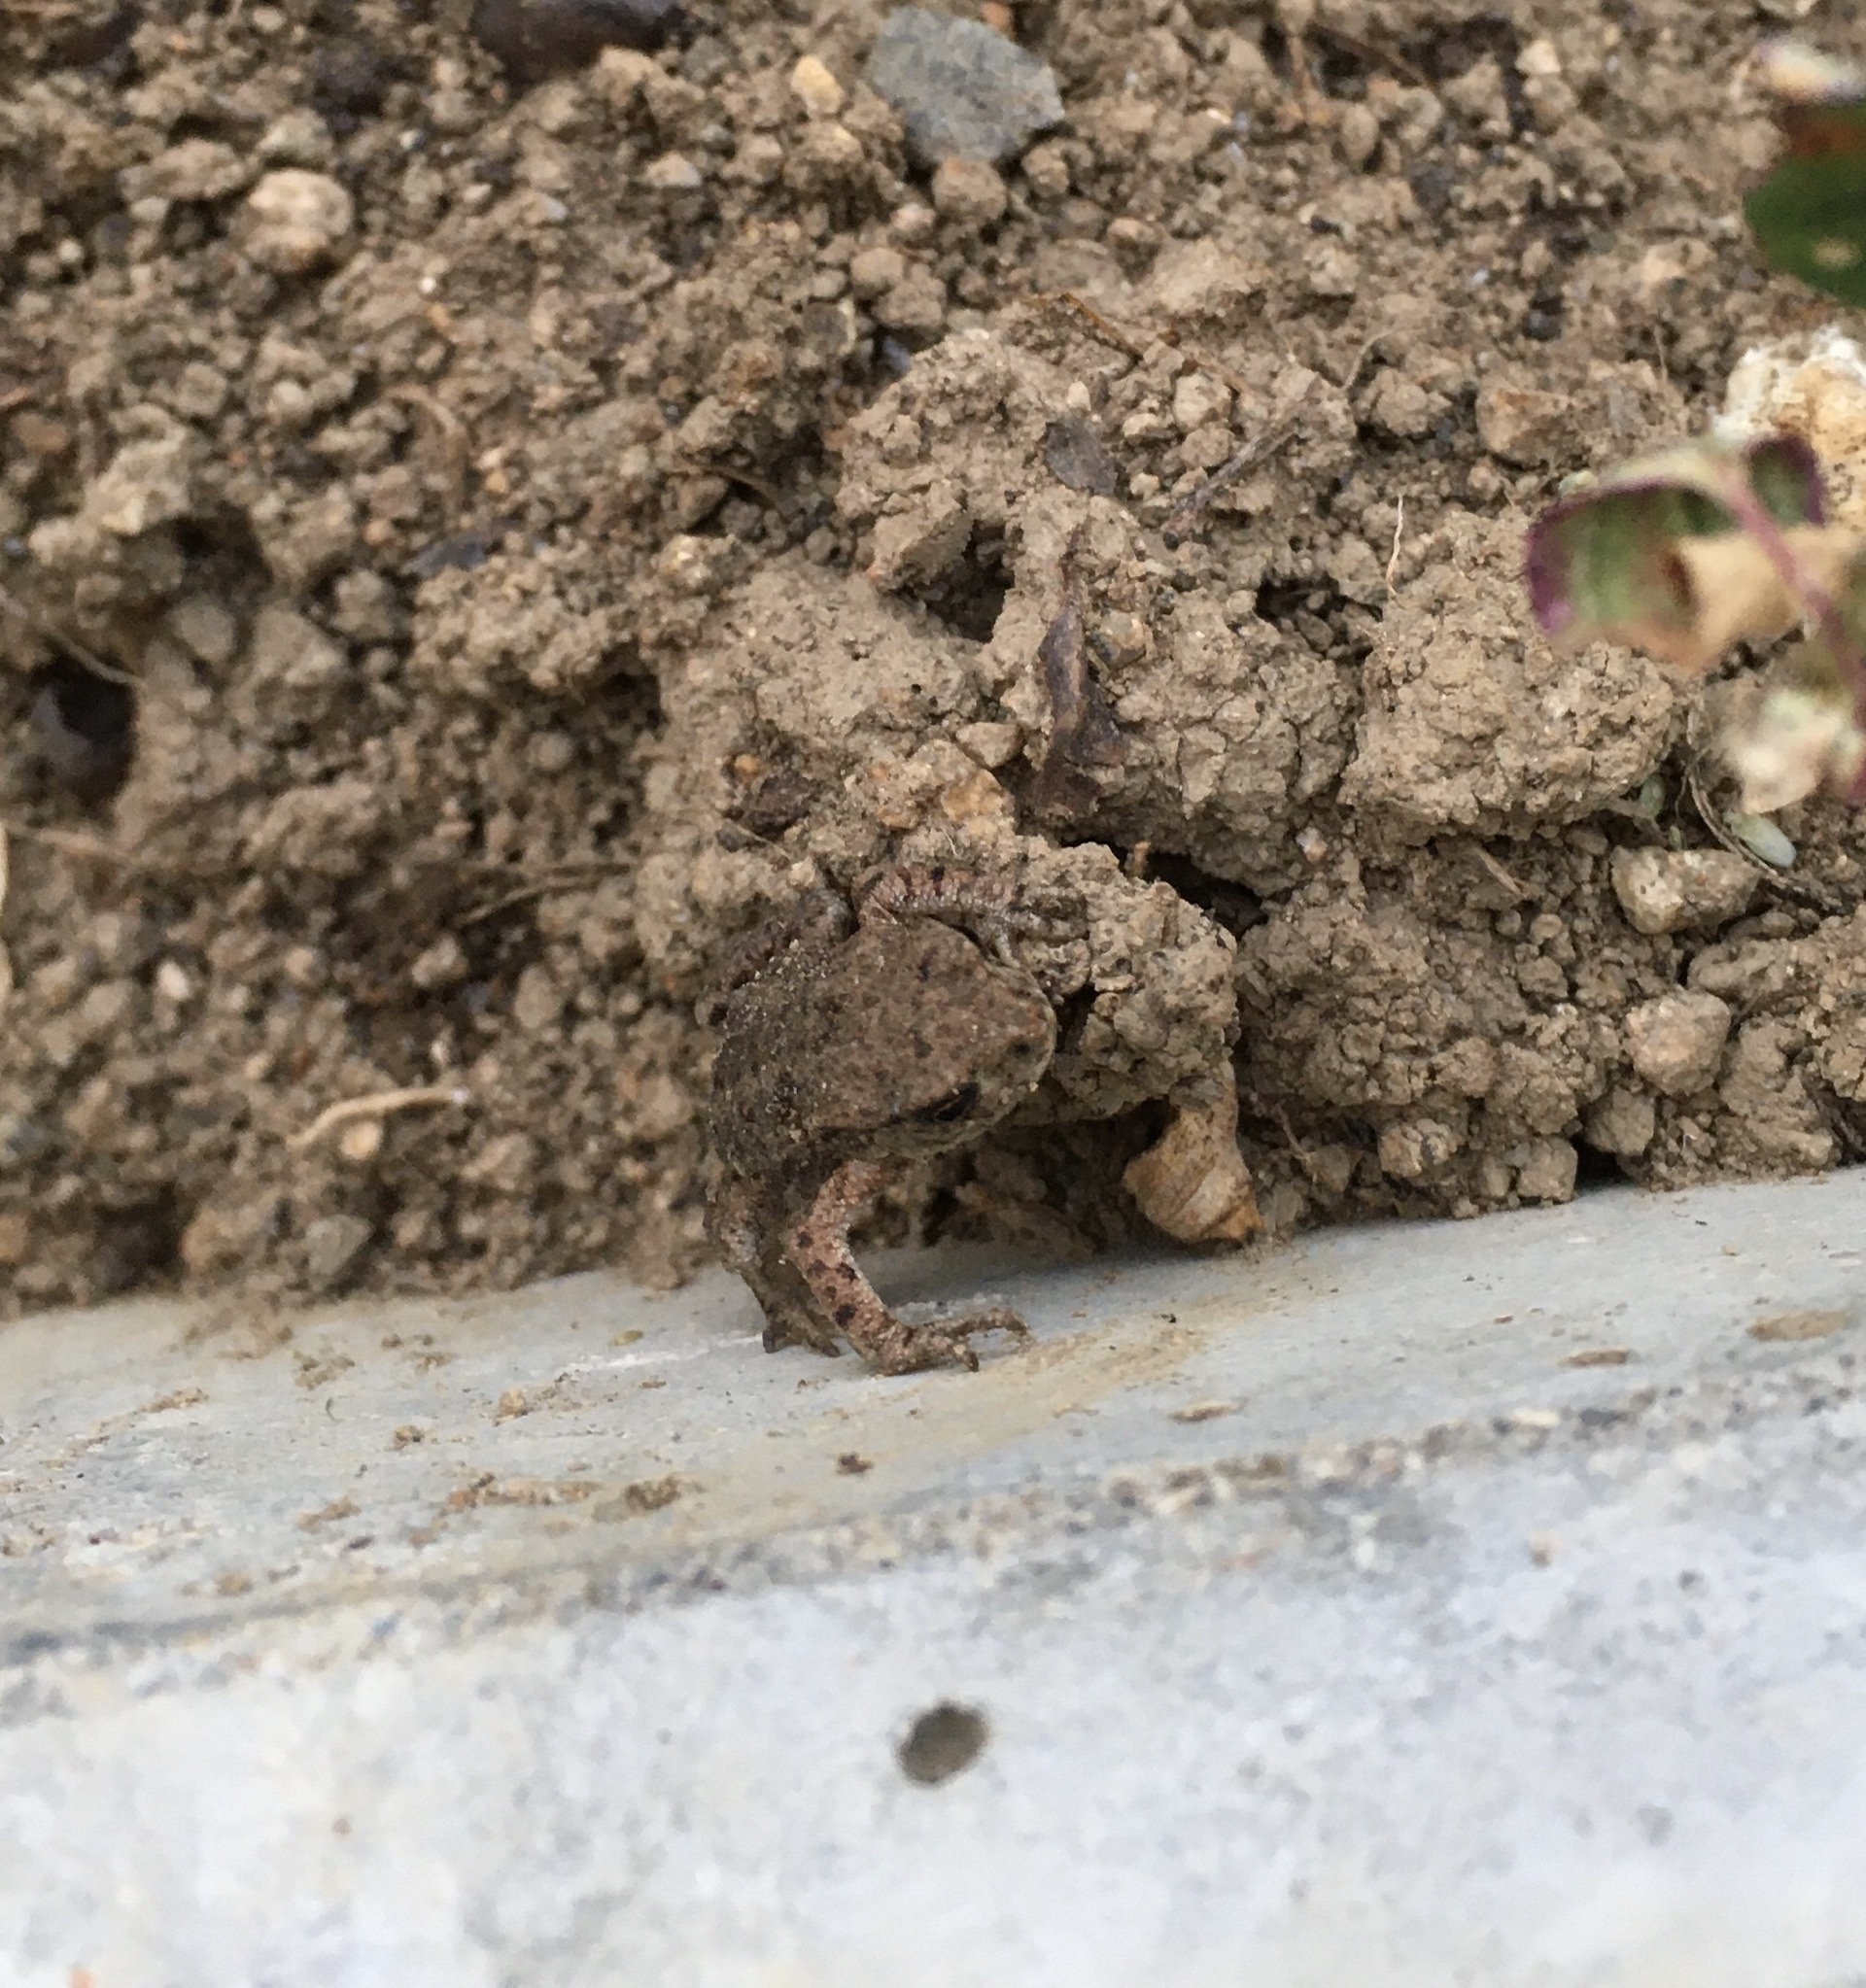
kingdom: Animalia
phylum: Chordata
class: Amphibia
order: Anura
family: Bufonidae
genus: Bufo
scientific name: Bufo bufo
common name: Common toad
